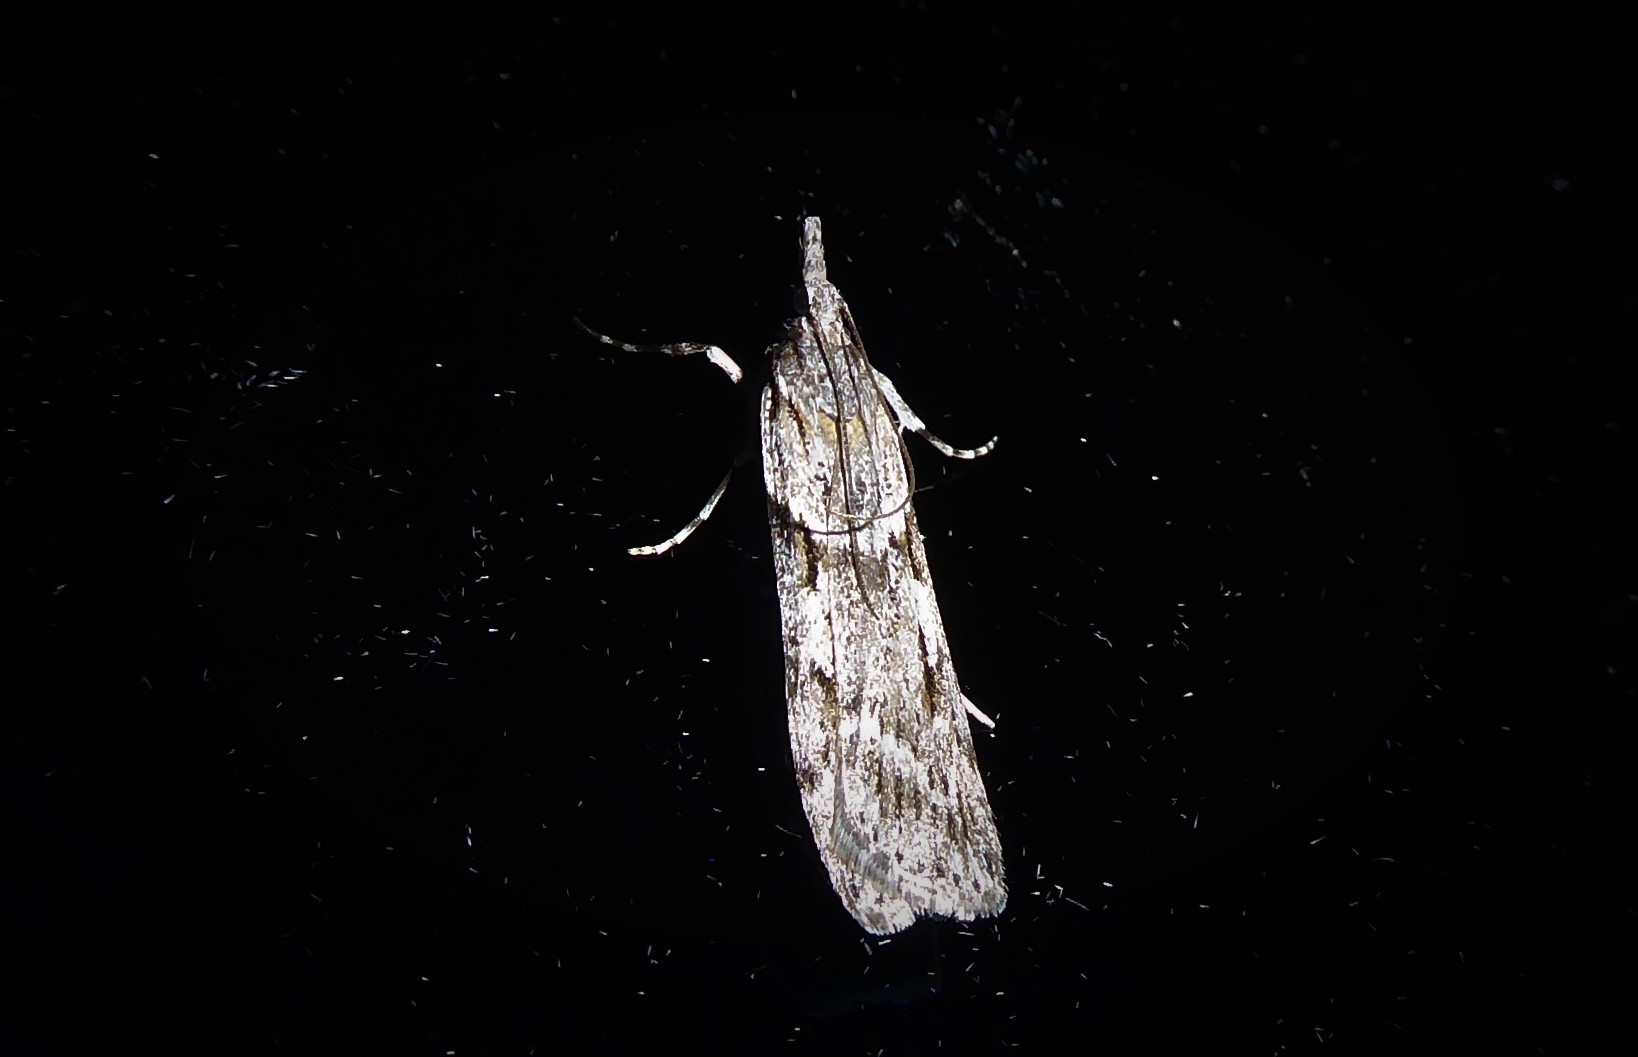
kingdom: Animalia
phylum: Arthropoda
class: Insecta
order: Lepidoptera
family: Crambidae
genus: Scoparia
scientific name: Scoparia halopis
